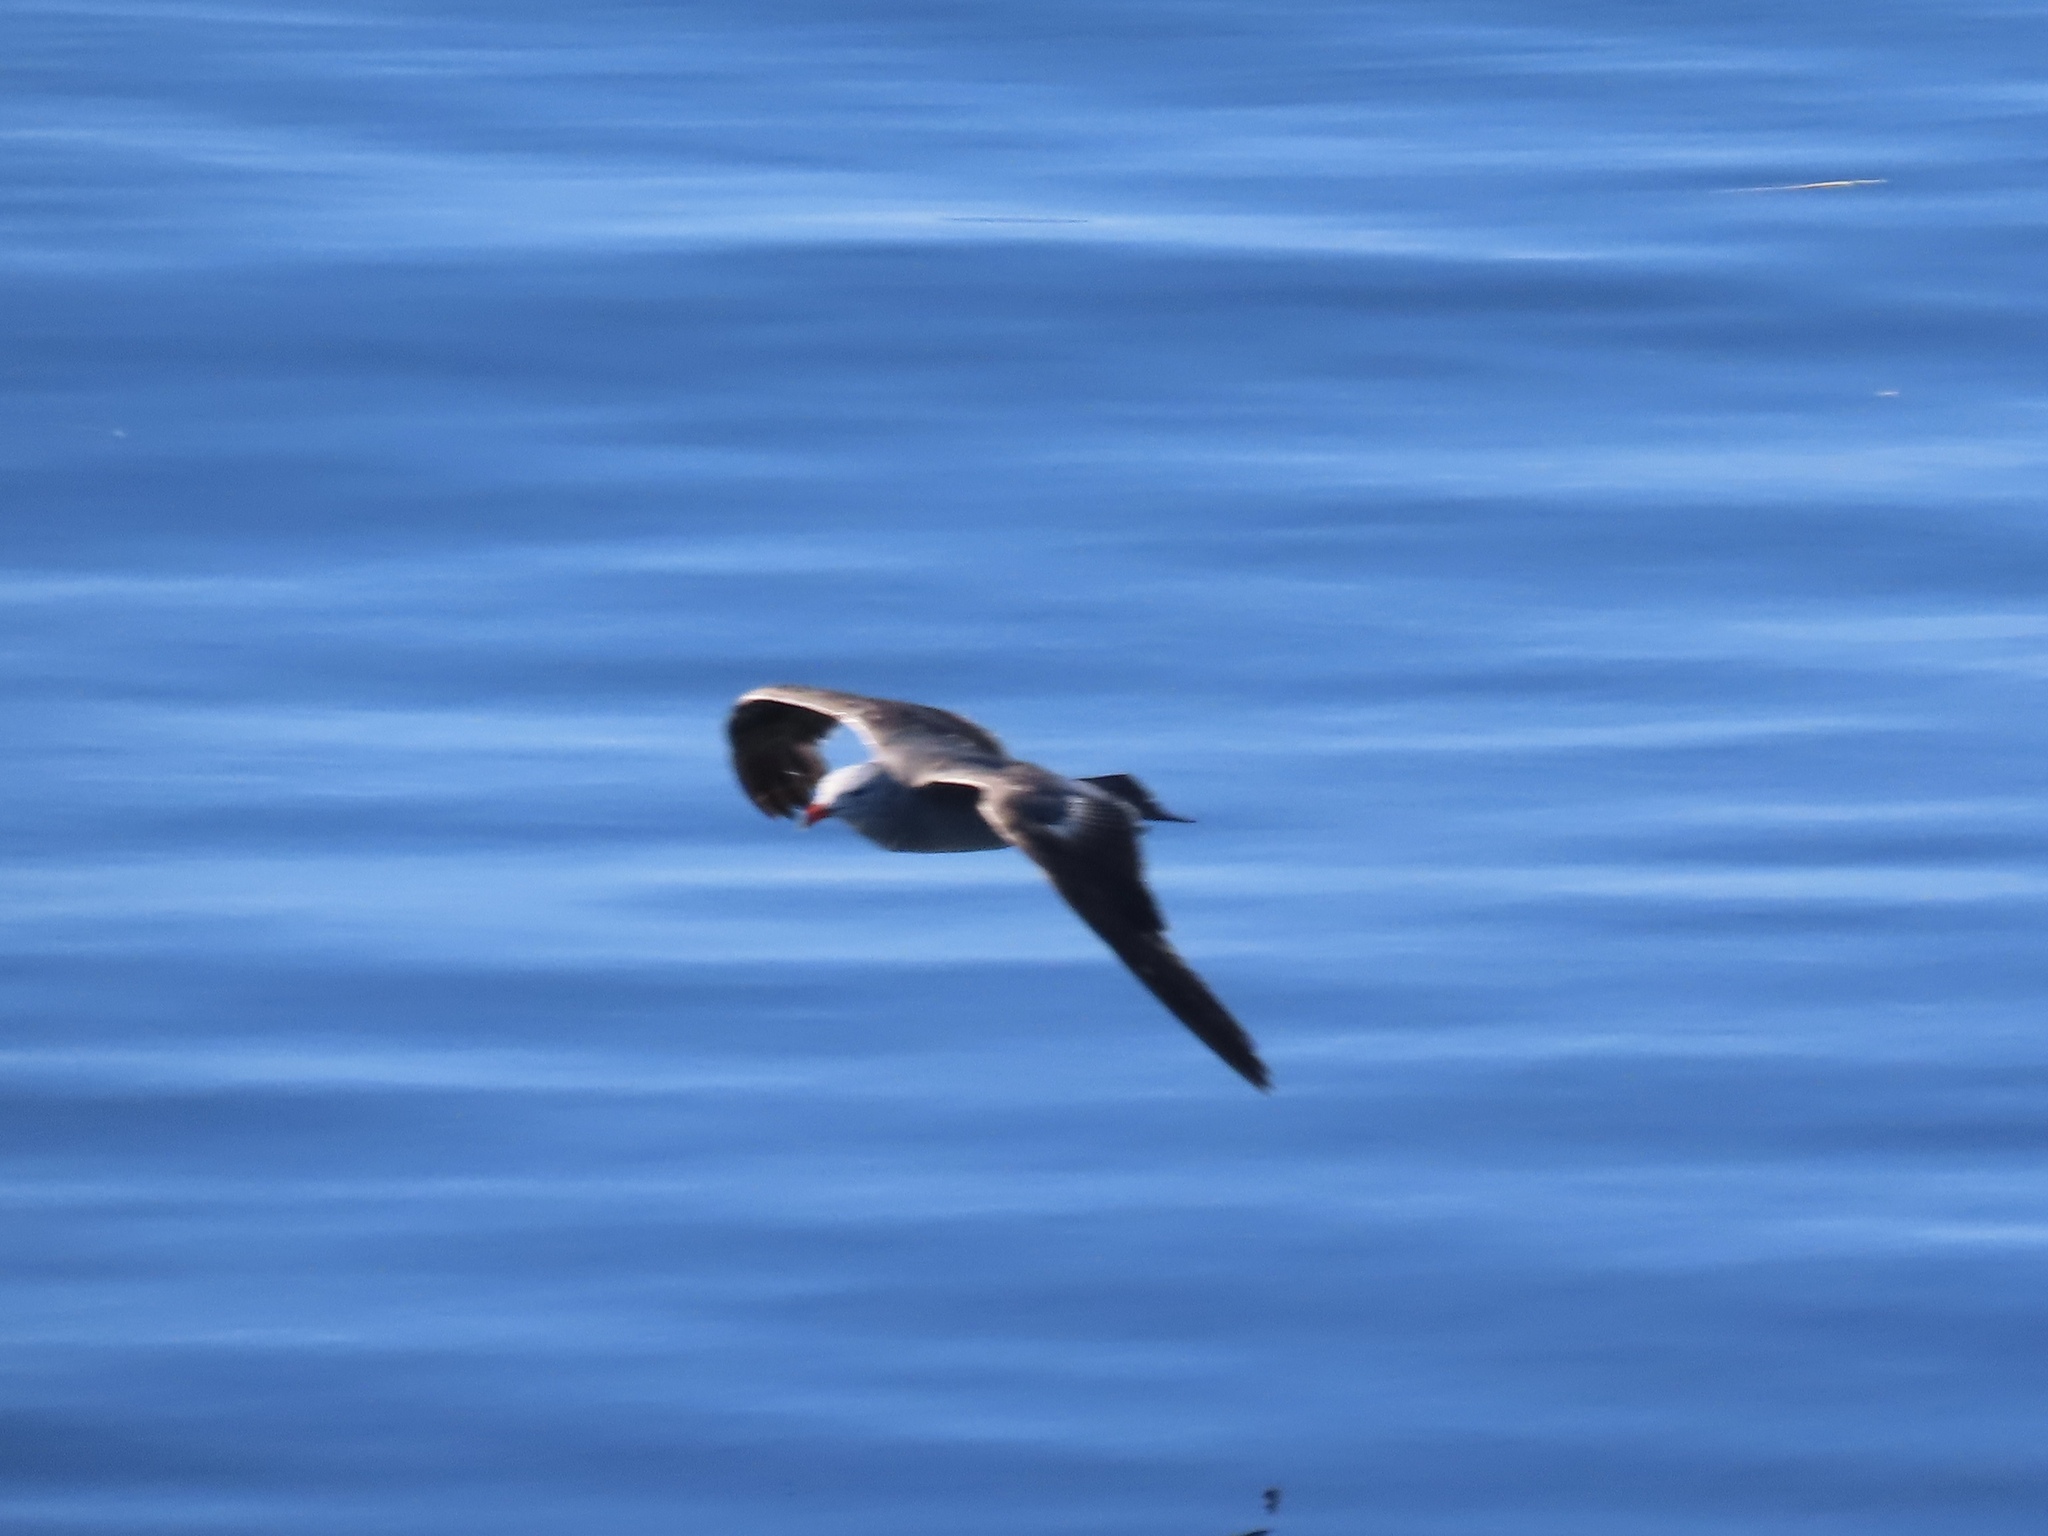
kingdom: Animalia
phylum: Chordata
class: Aves
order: Charadriiformes
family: Laridae
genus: Larus
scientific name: Larus heermanni
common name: Heermann's gull
